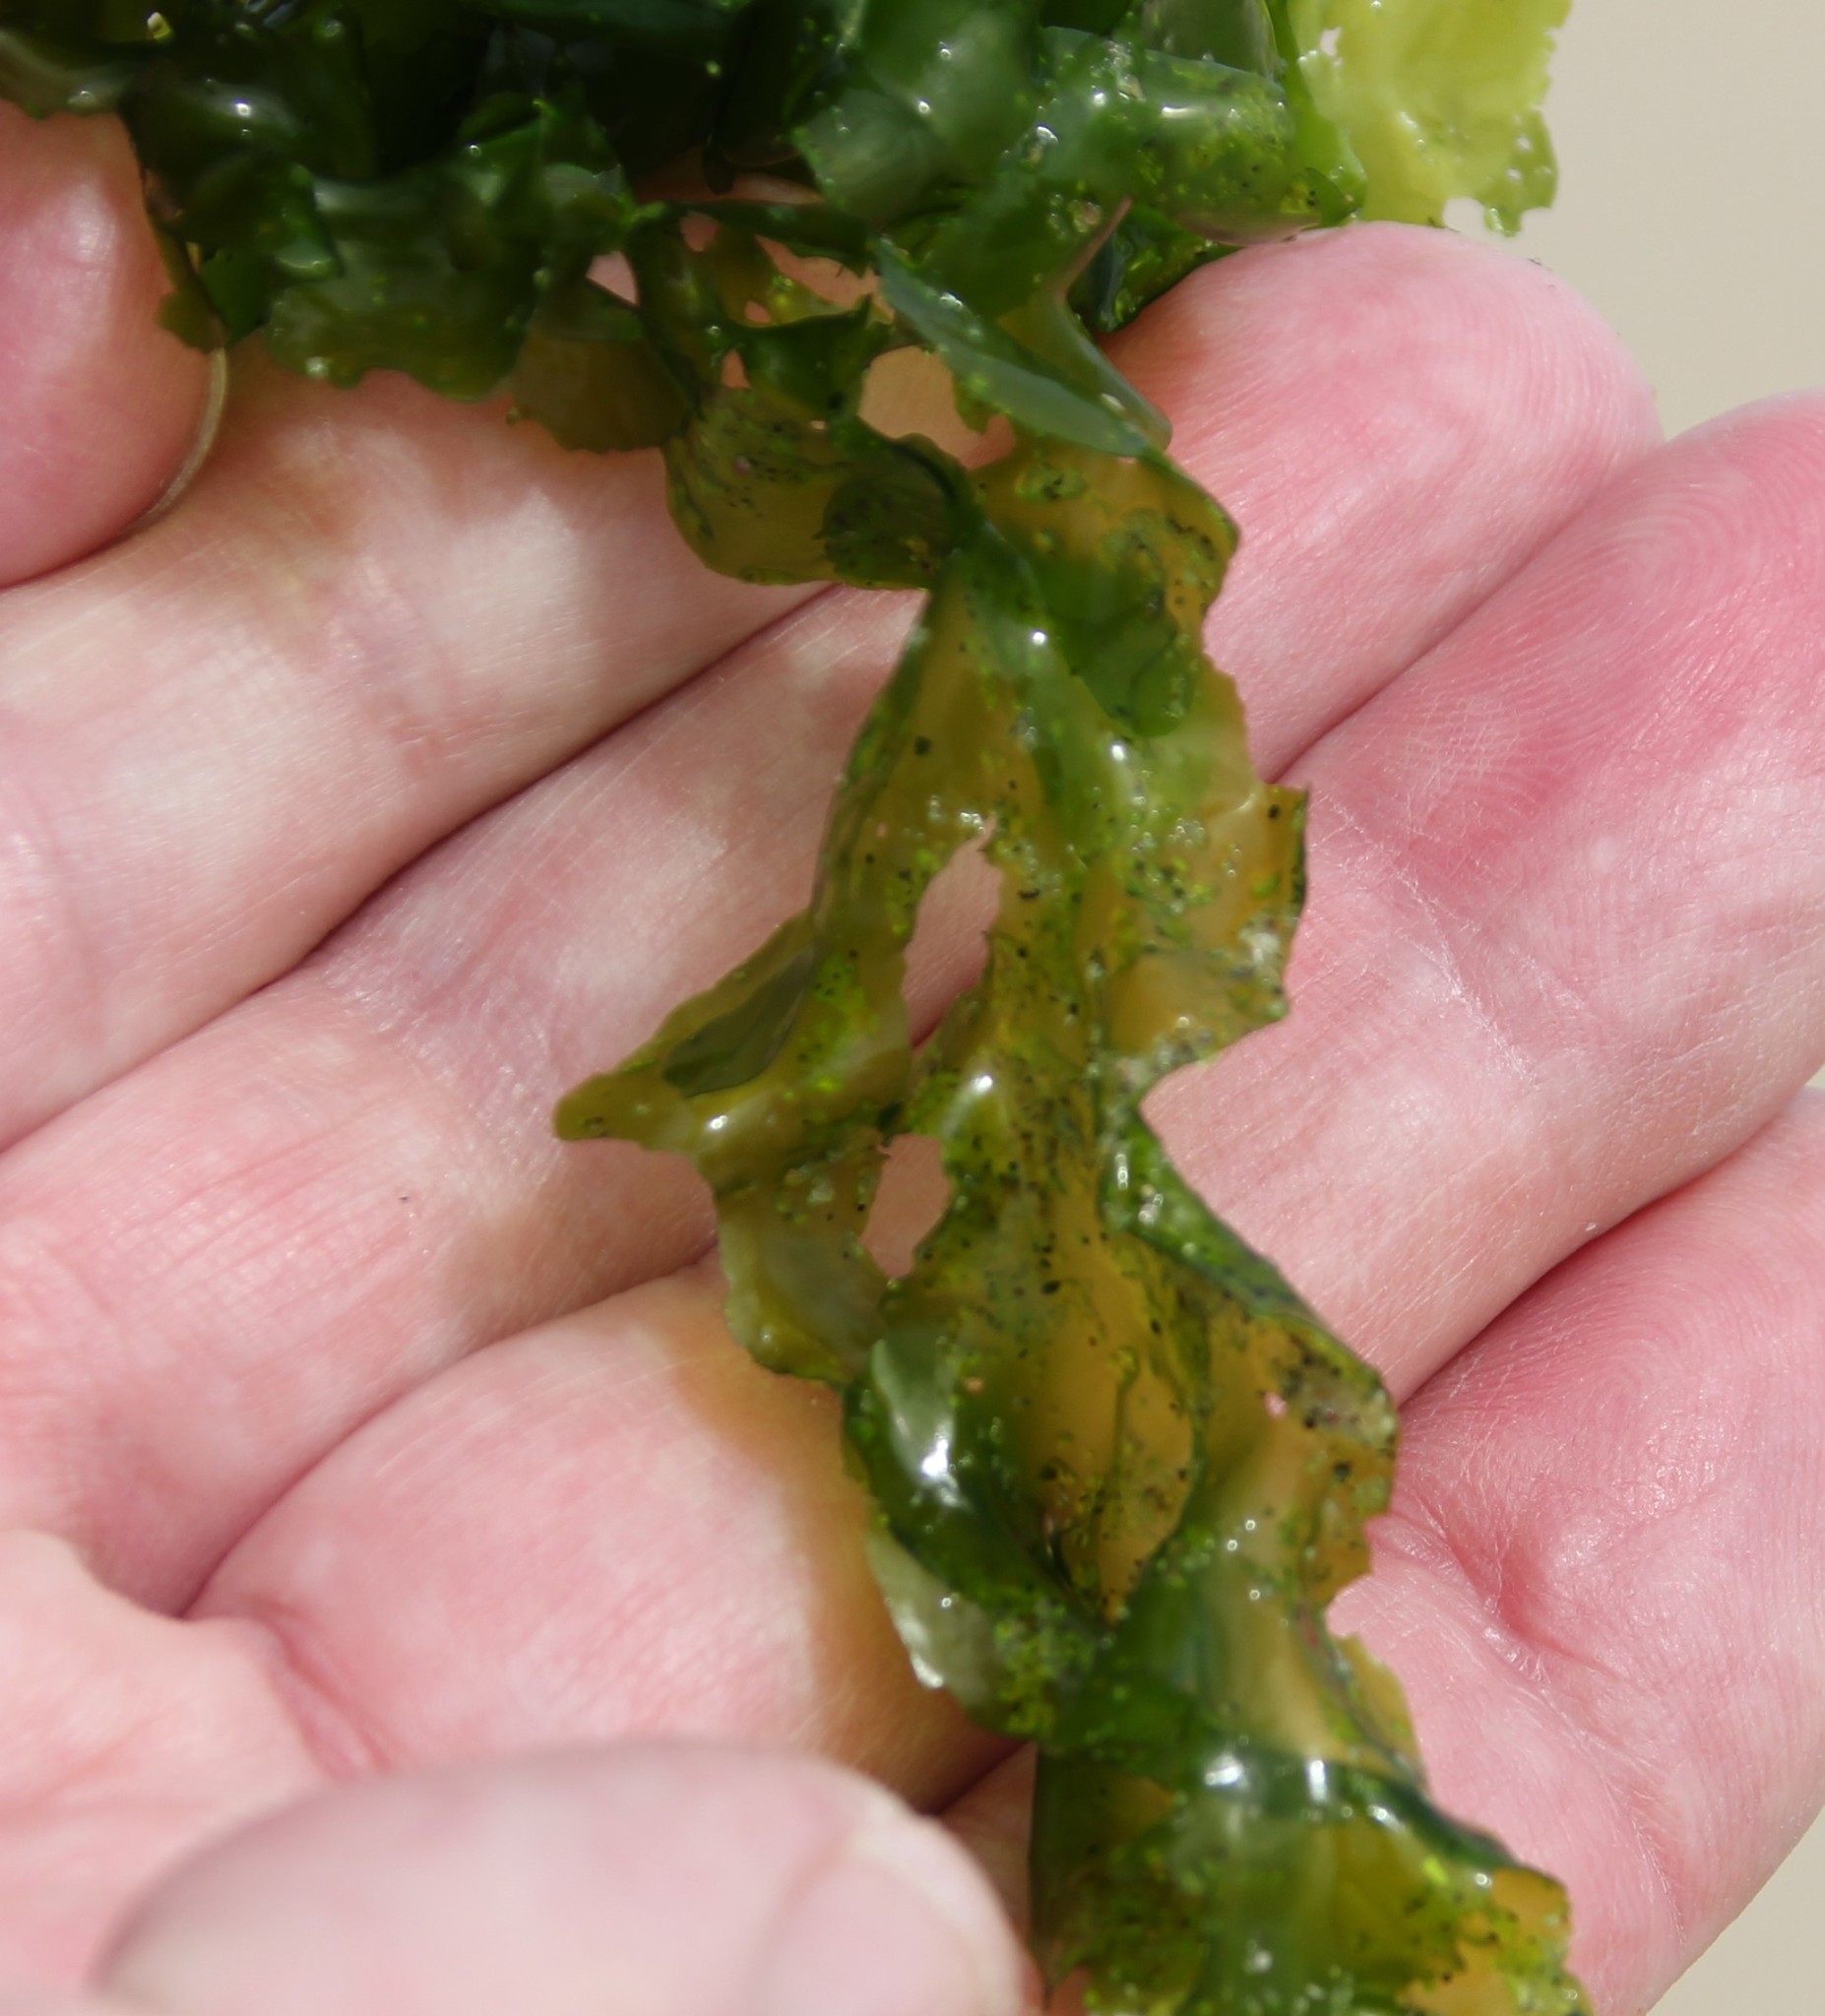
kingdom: Plantae
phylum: Chlorophyta
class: Ulvophyceae
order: Ulvales
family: Ulvaceae
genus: Ulva
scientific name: Ulva taeniata
